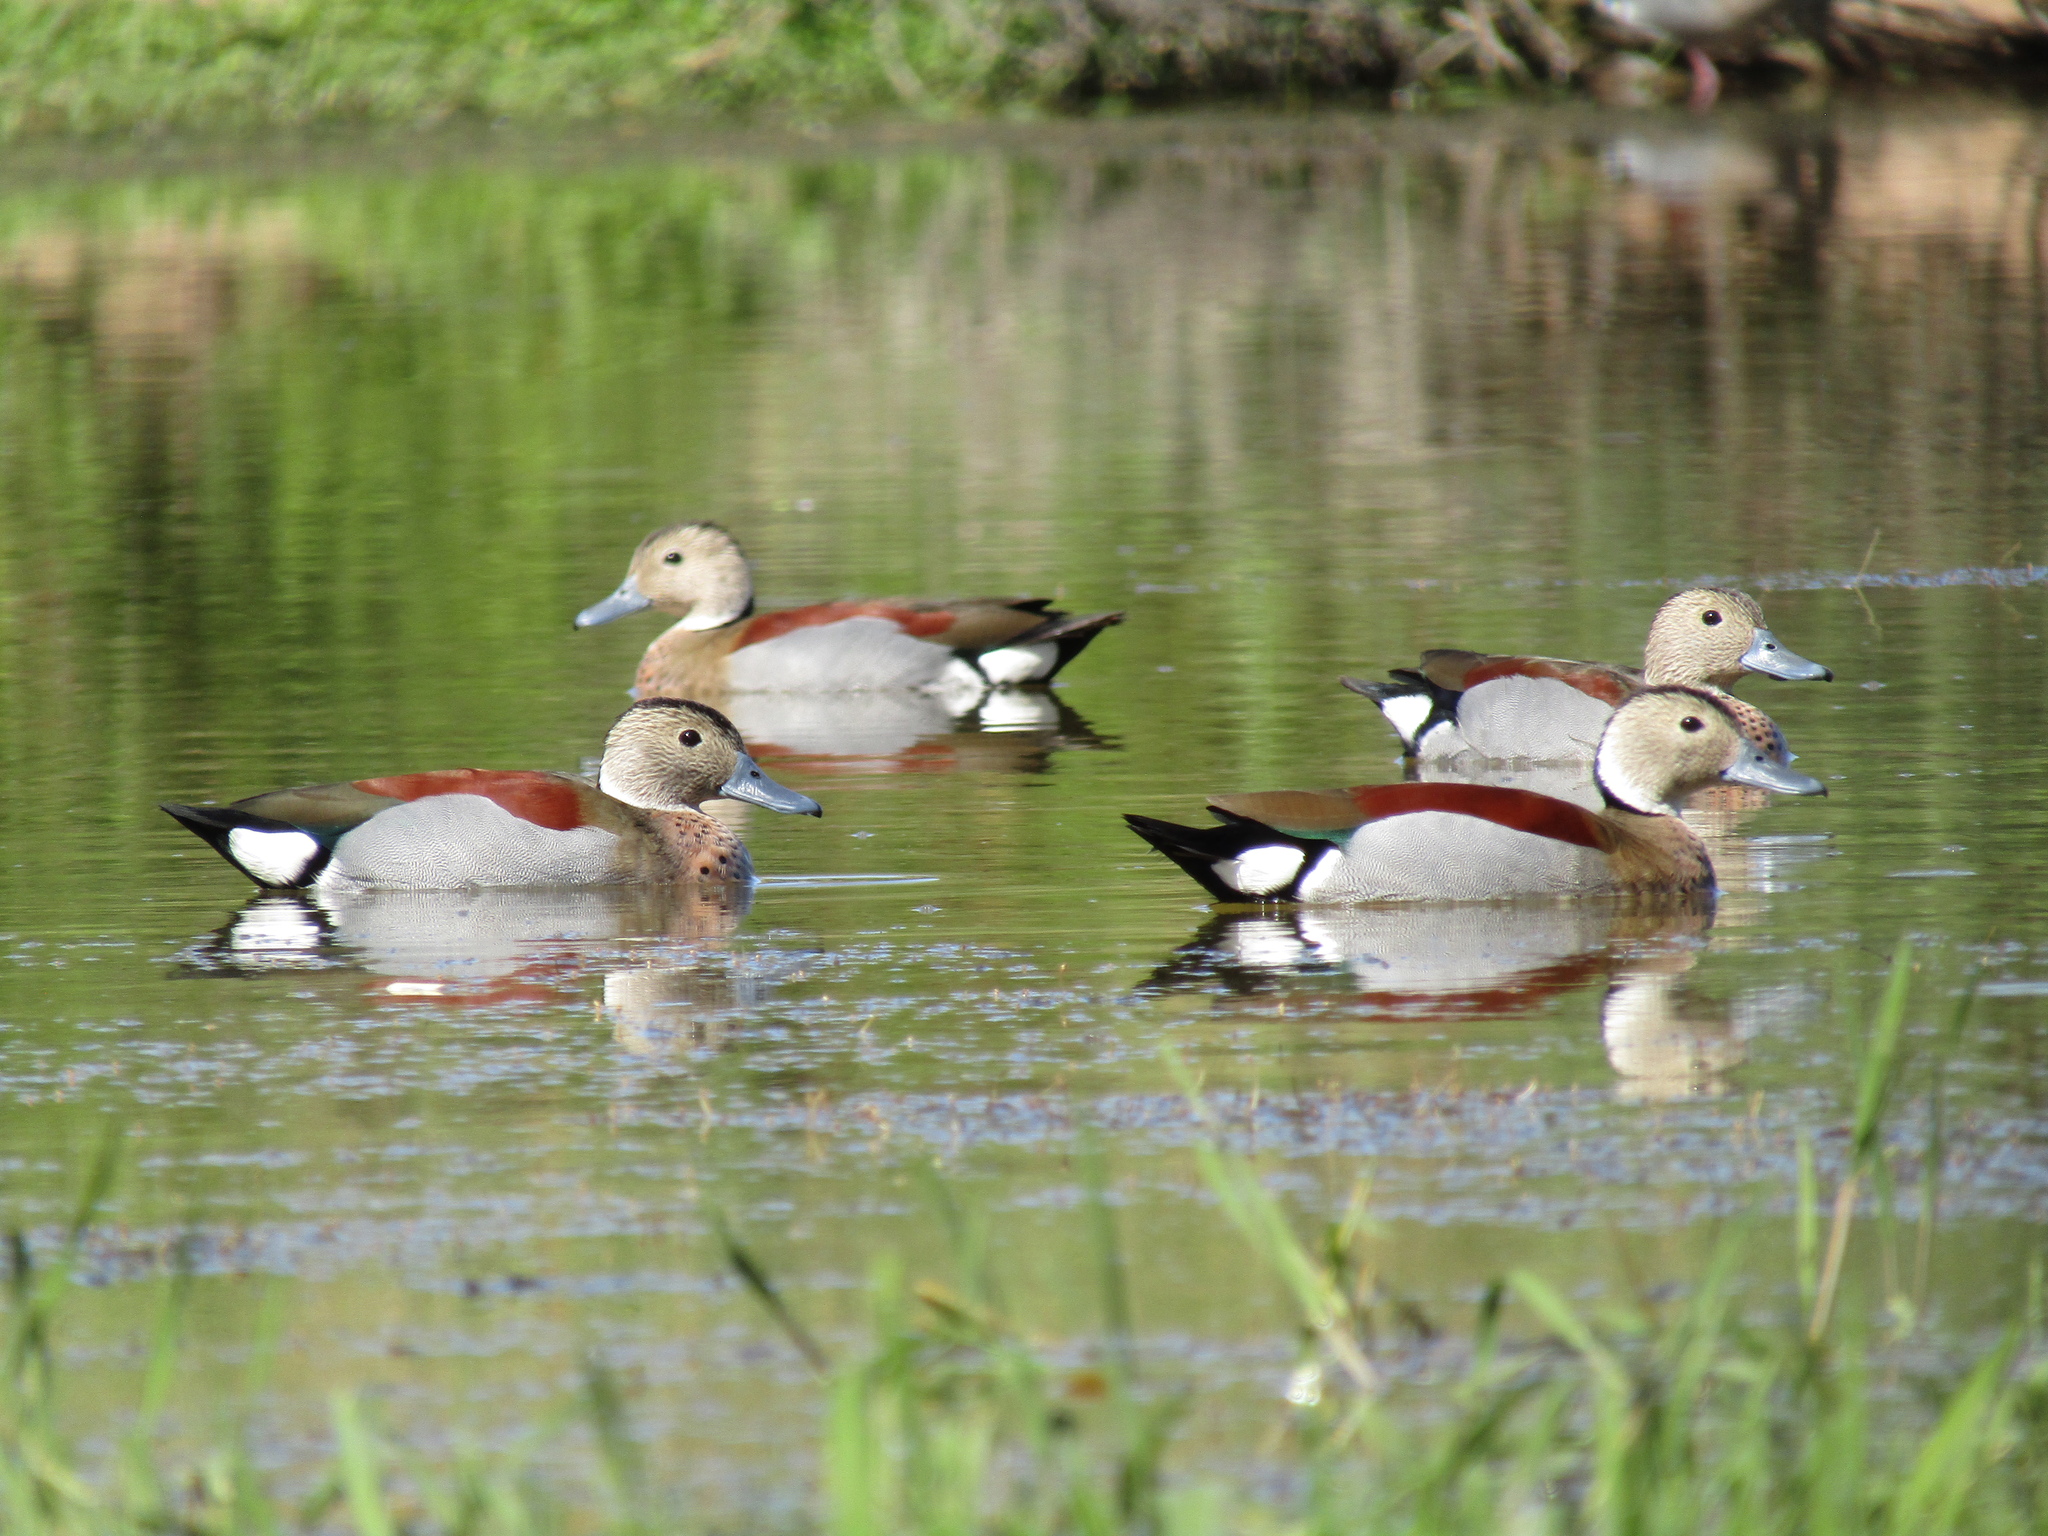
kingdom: Animalia
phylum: Chordata
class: Aves
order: Anseriformes
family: Anatidae
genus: Callonetta
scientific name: Callonetta leucophrys
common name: Ringed teal
